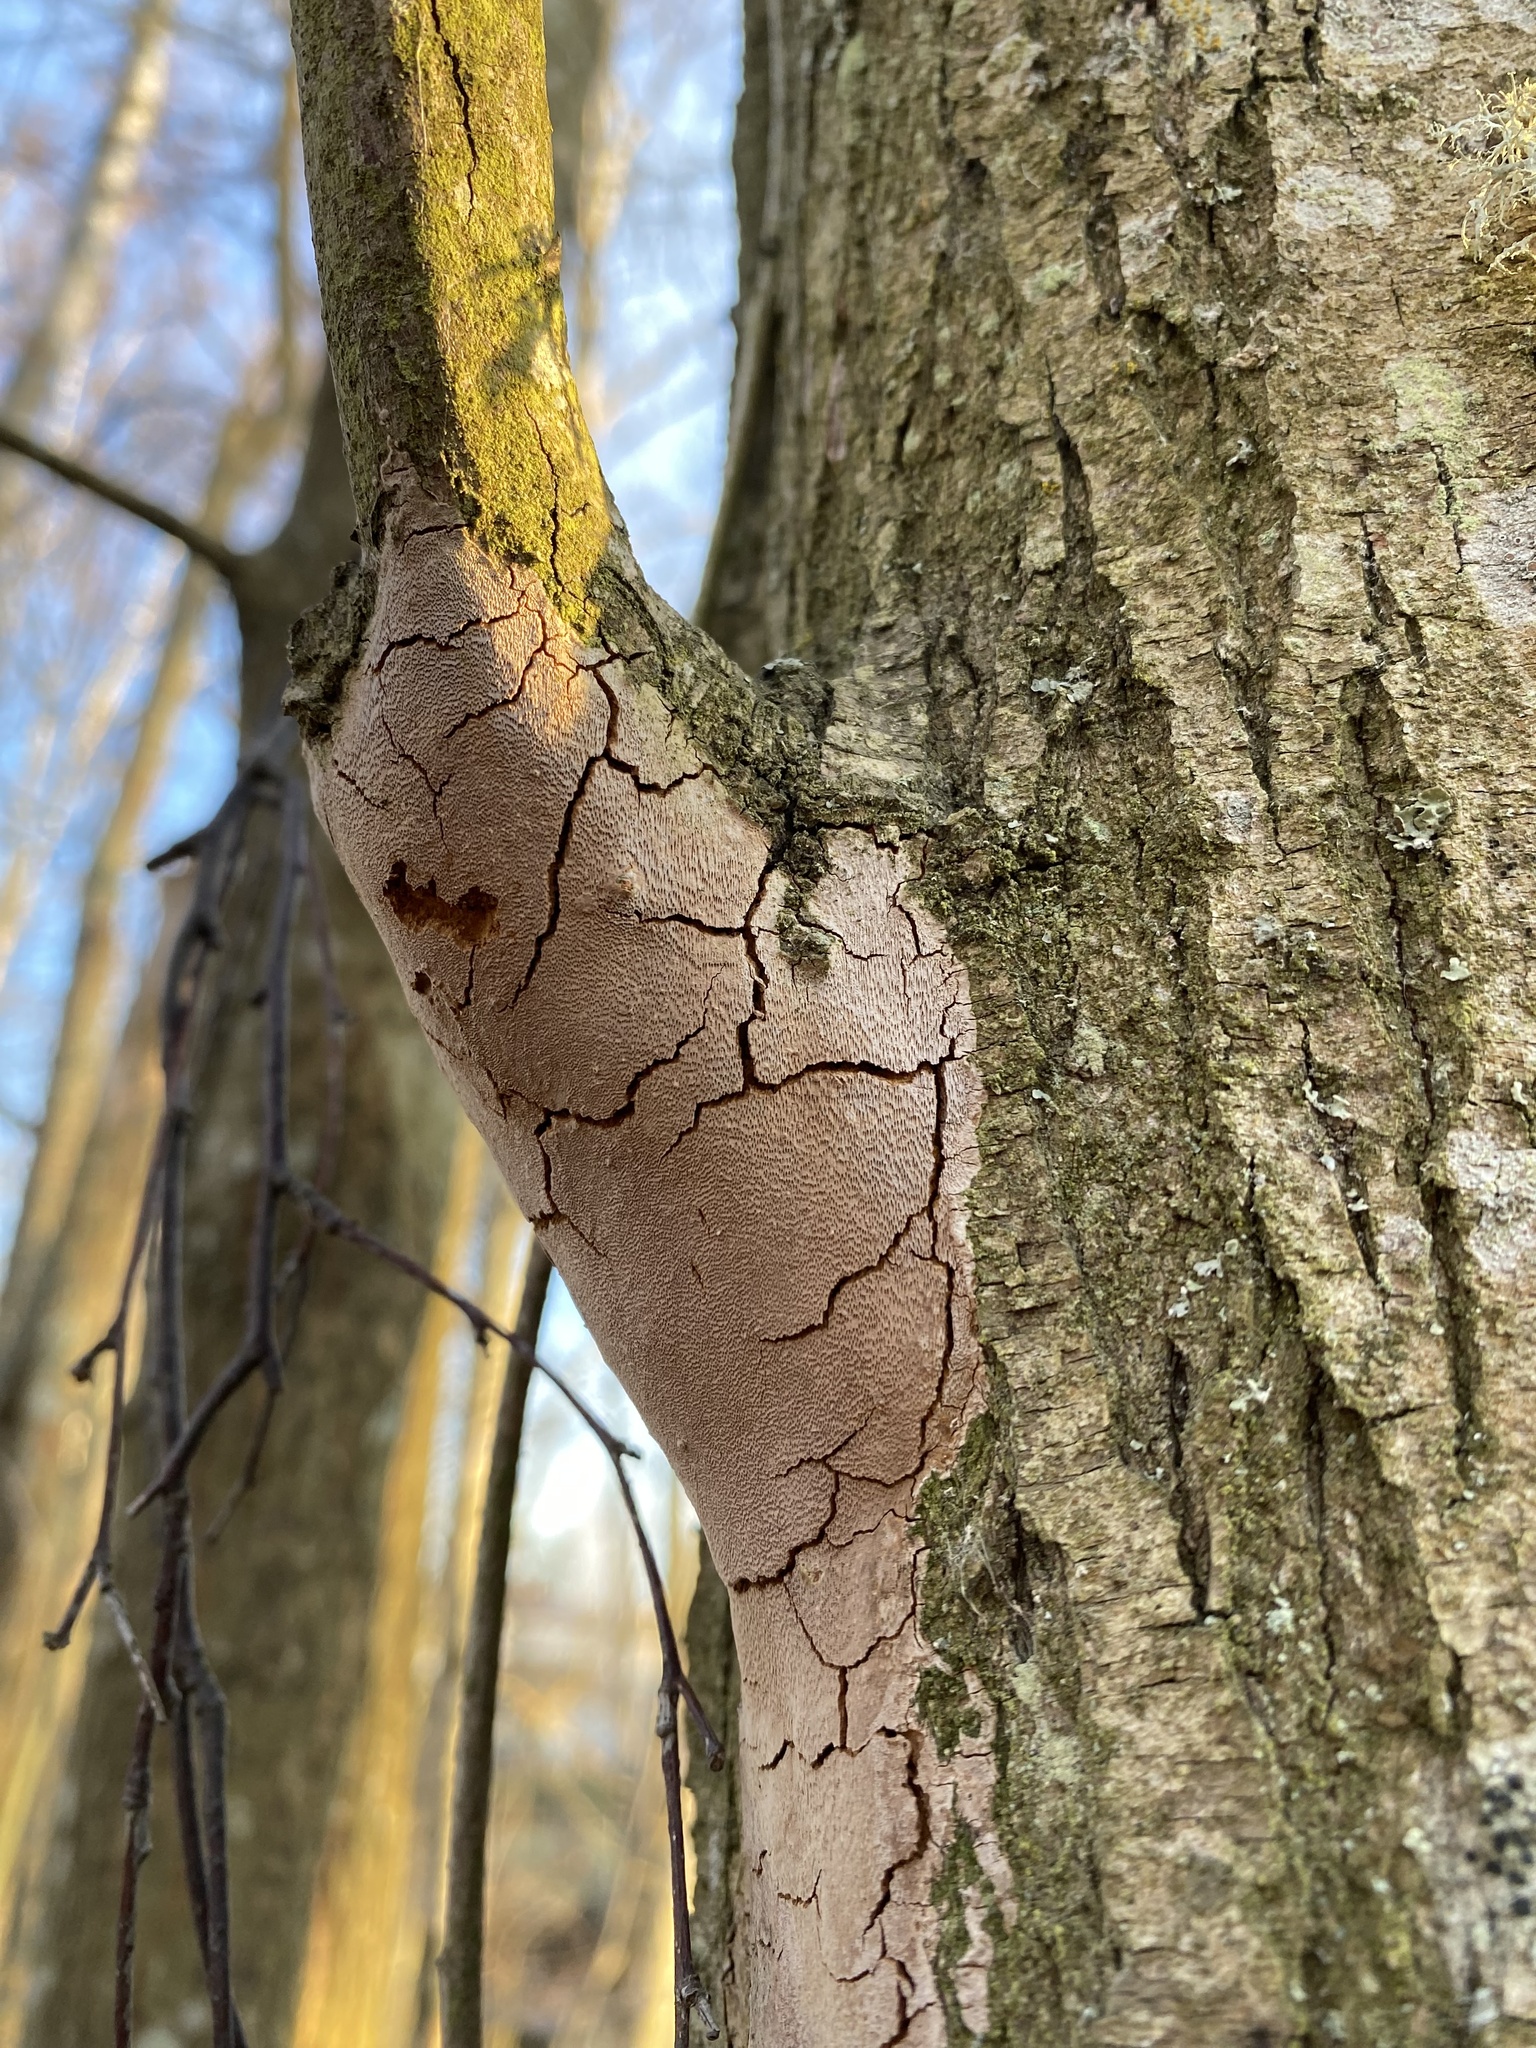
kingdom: Fungi
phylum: Basidiomycota
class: Agaricomycetes
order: Hymenochaetales
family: Hymenochaetaceae
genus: Fomitiporia
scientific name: Fomitiporia punctata
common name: Elbowpatch crust
